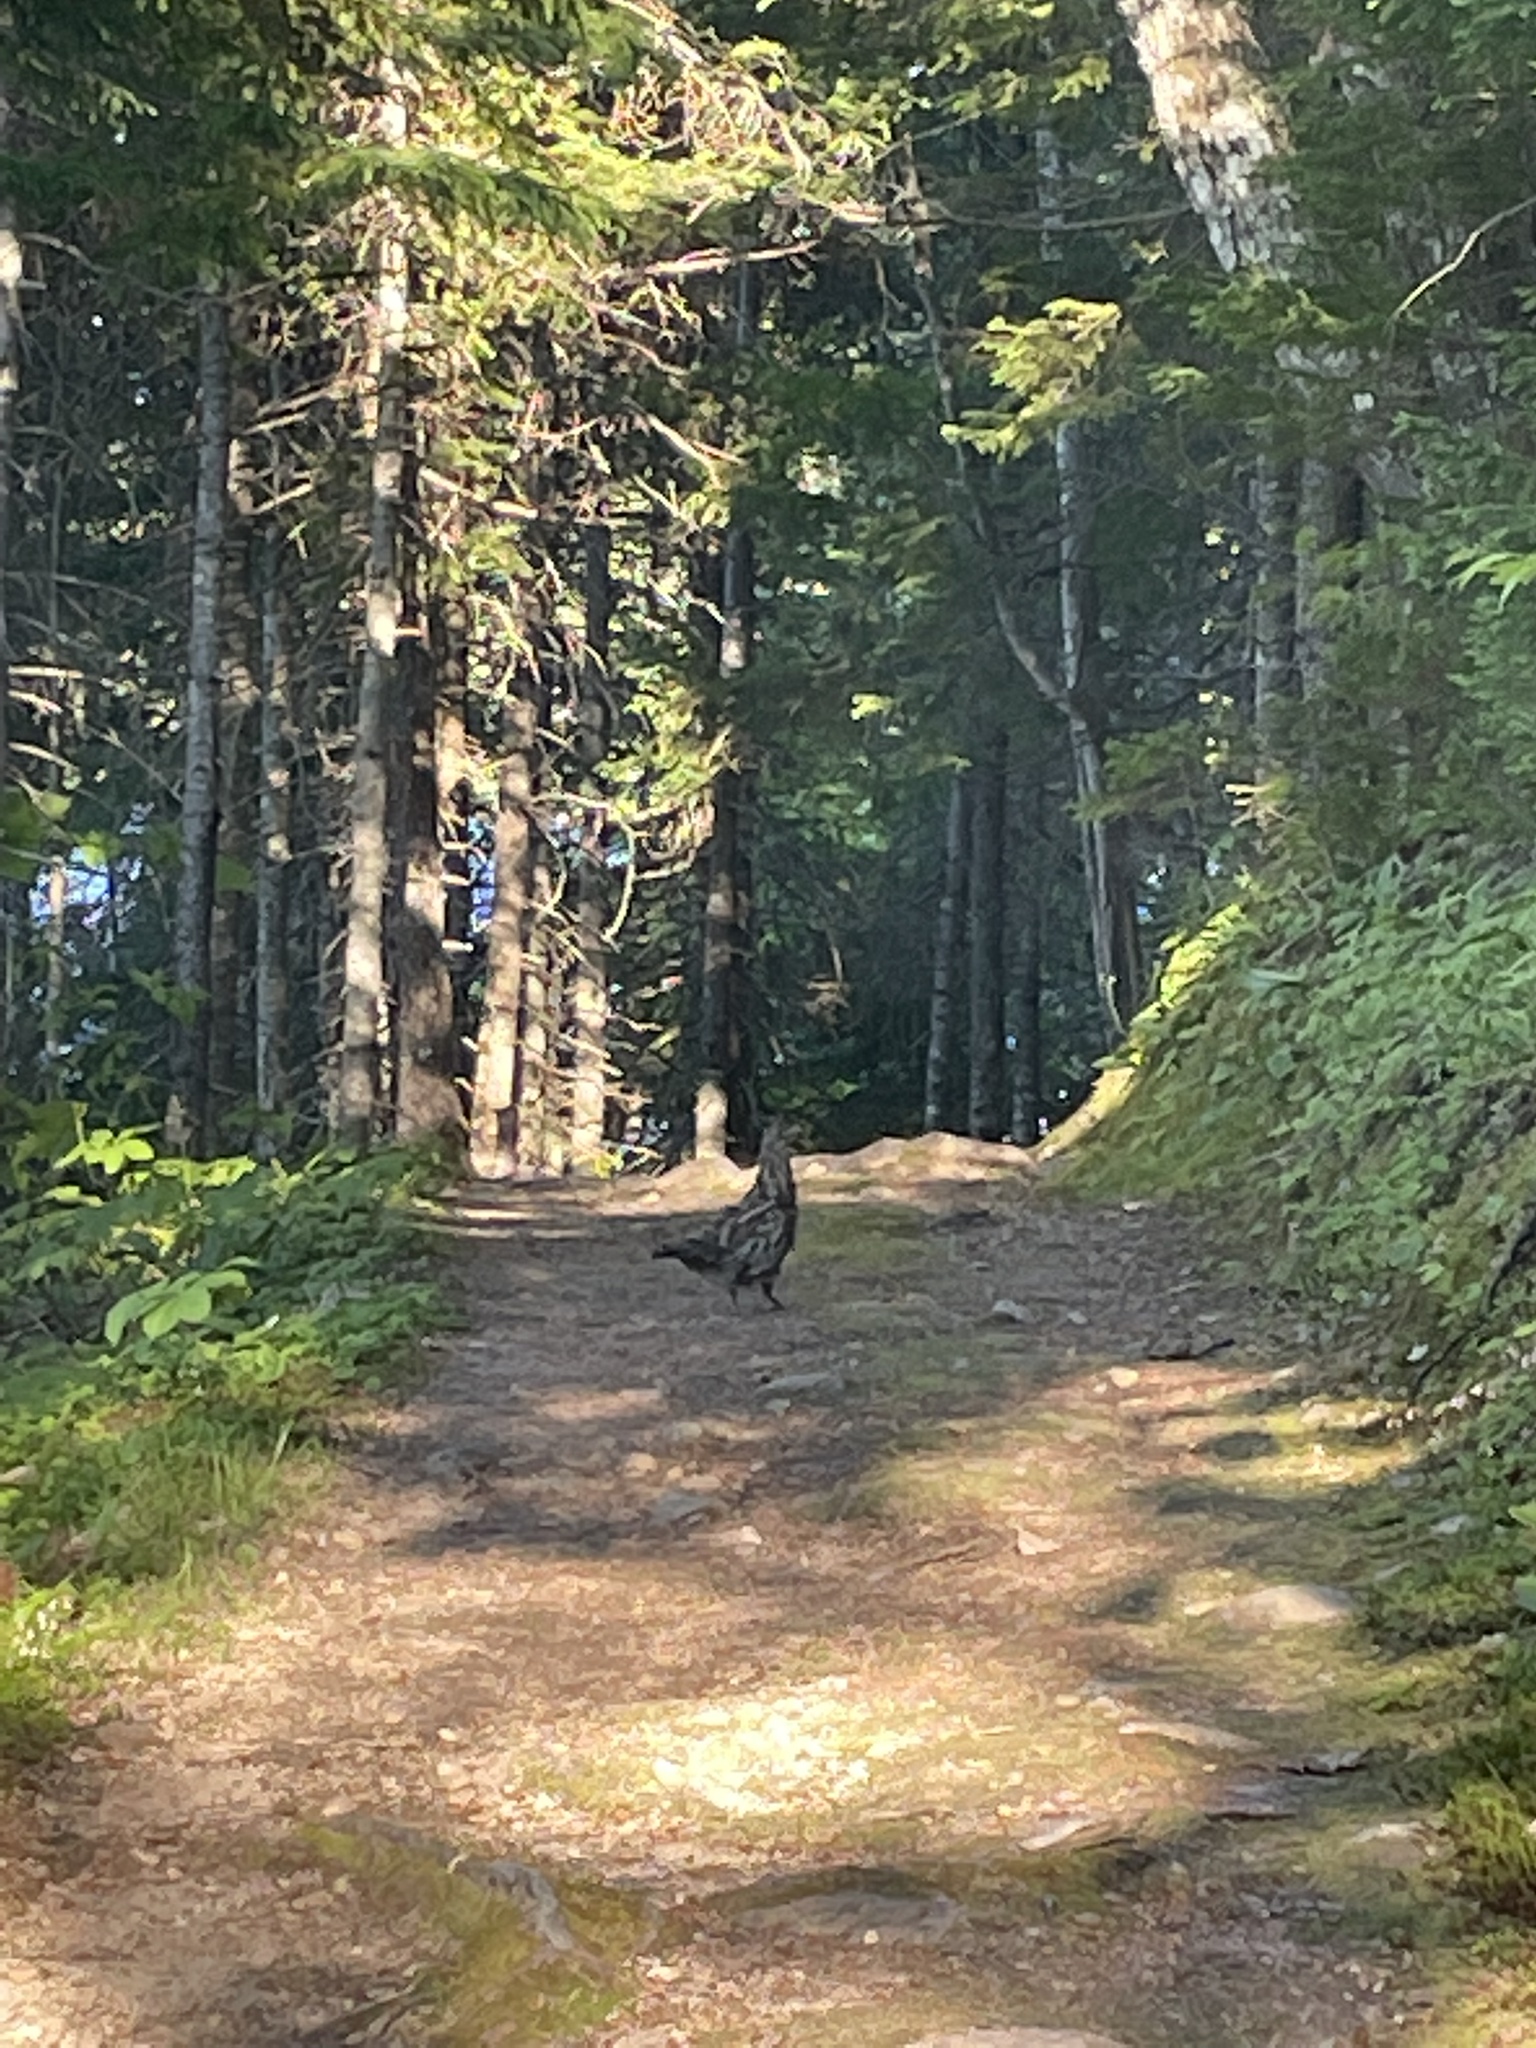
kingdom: Animalia
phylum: Chordata
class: Aves
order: Galliformes
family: Phasianidae
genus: Bonasa
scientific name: Bonasa umbellus
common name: Ruffed grouse
